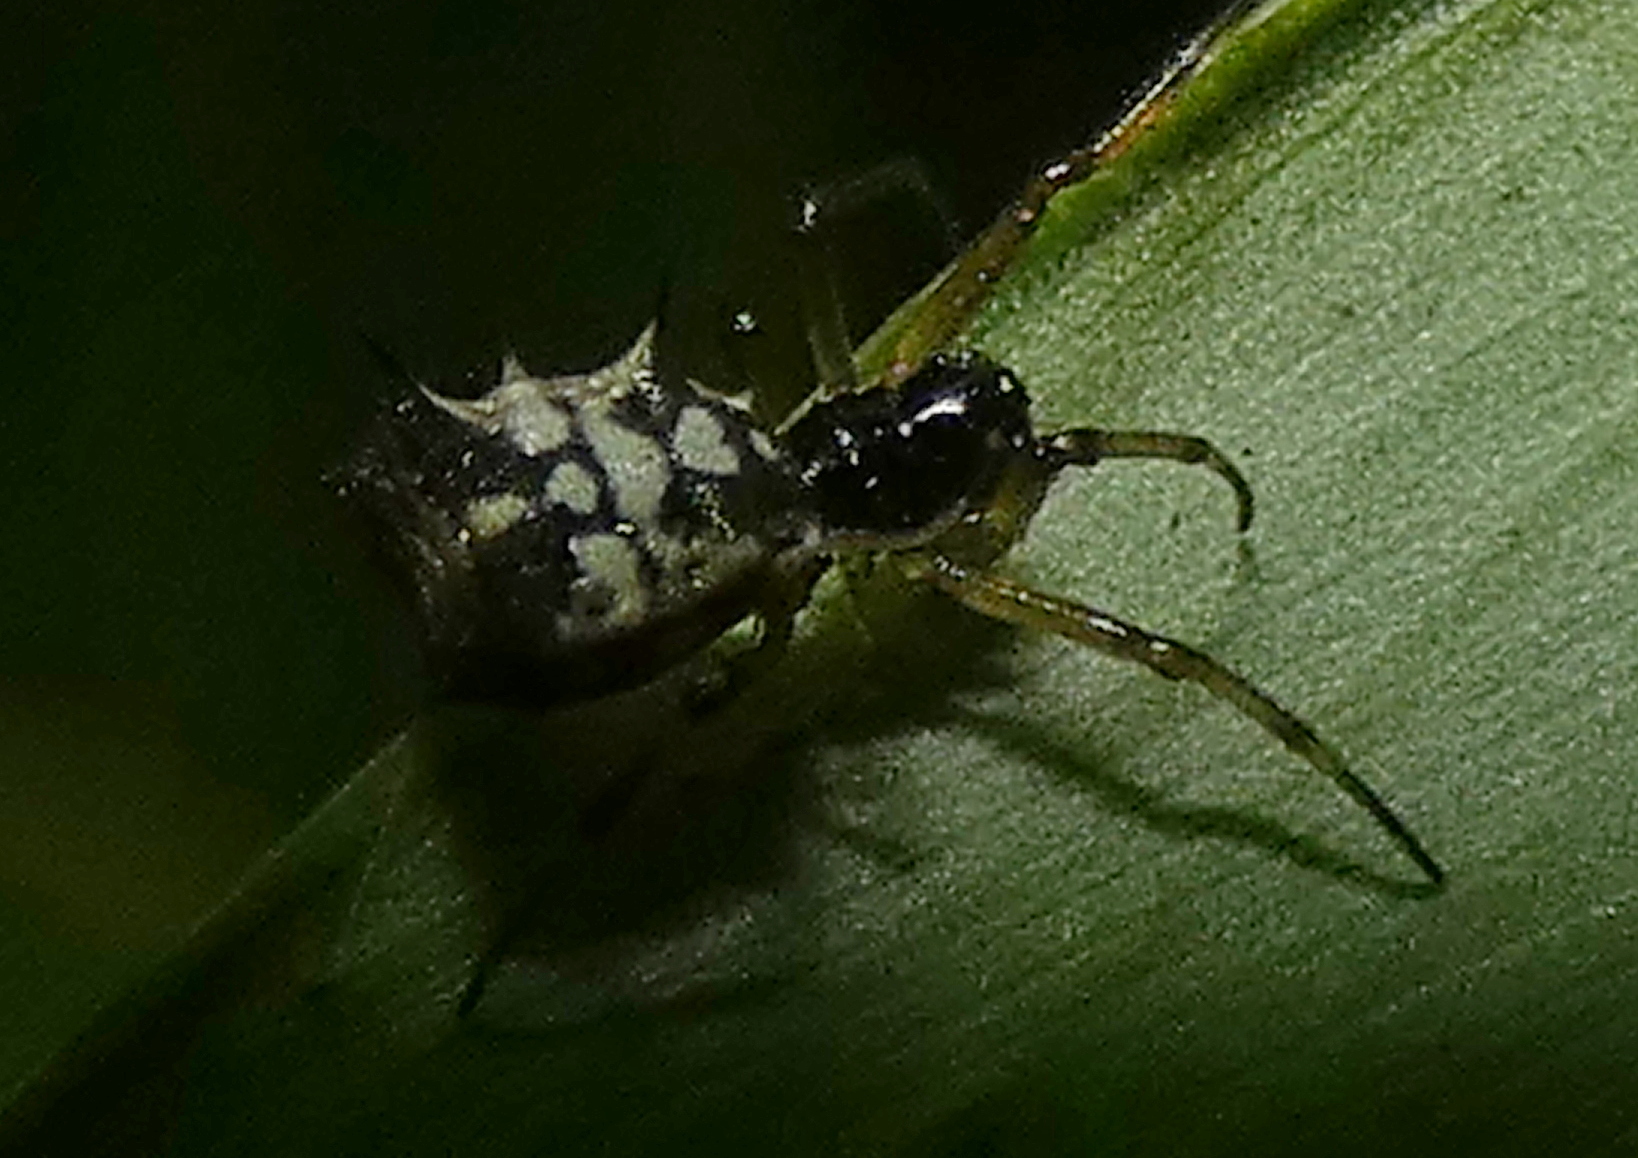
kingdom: Animalia
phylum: Arthropoda
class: Arachnida
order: Araneae
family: Araneidae
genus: Micrathena
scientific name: Micrathena picta
